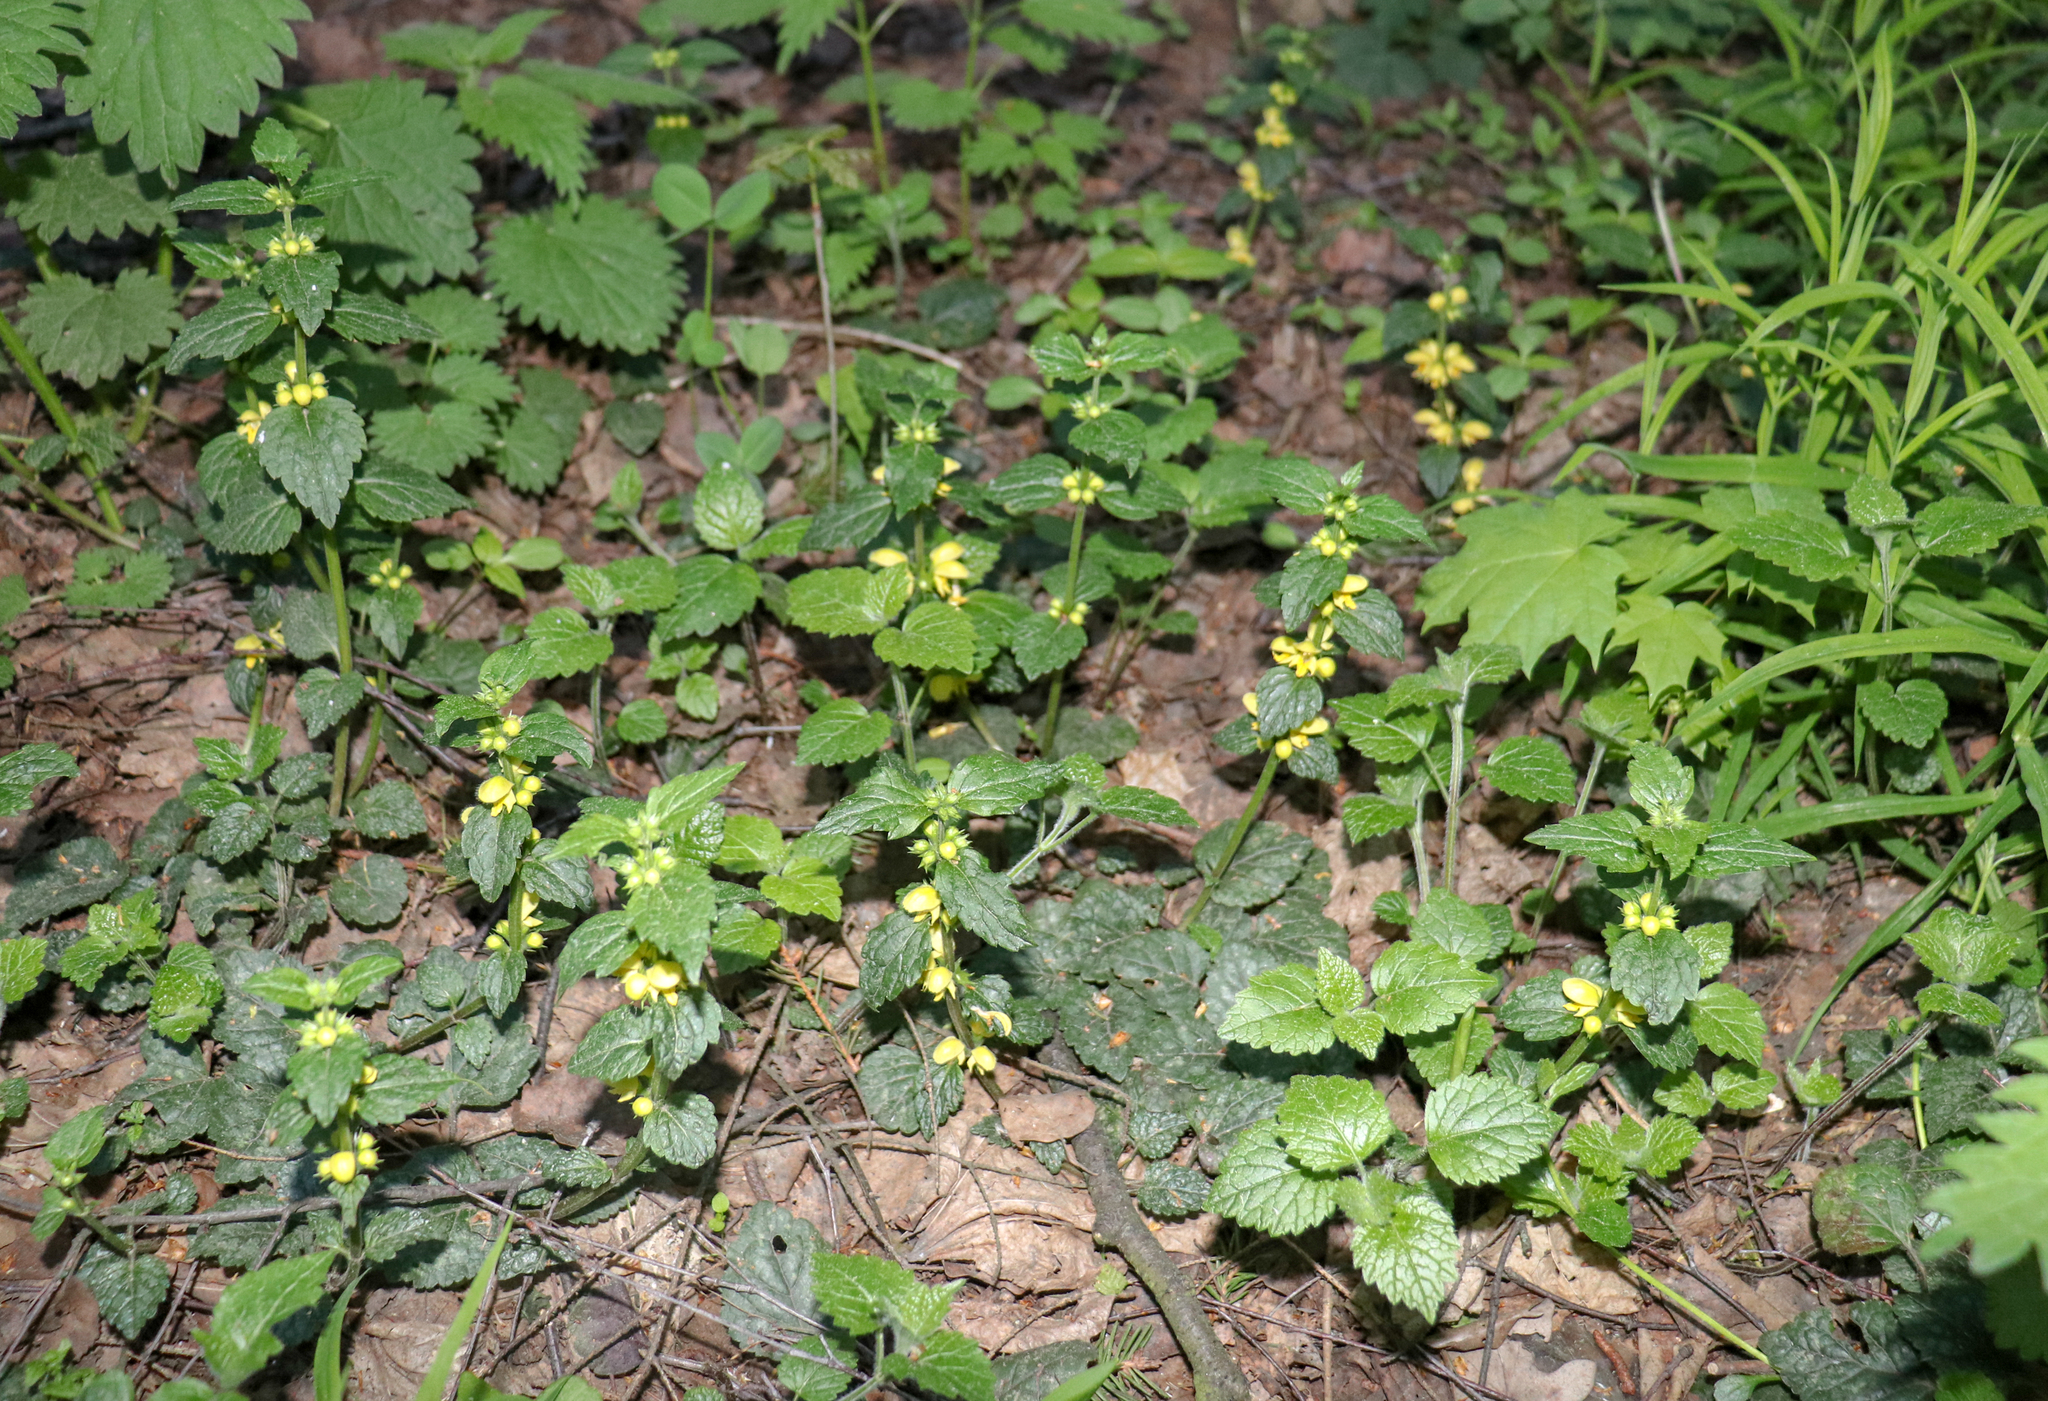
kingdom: Plantae
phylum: Tracheophyta
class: Magnoliopsida
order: Lamiales
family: Lamiaceae
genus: Lamium
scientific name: Lamium galeobdolon
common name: Yellow archangel
